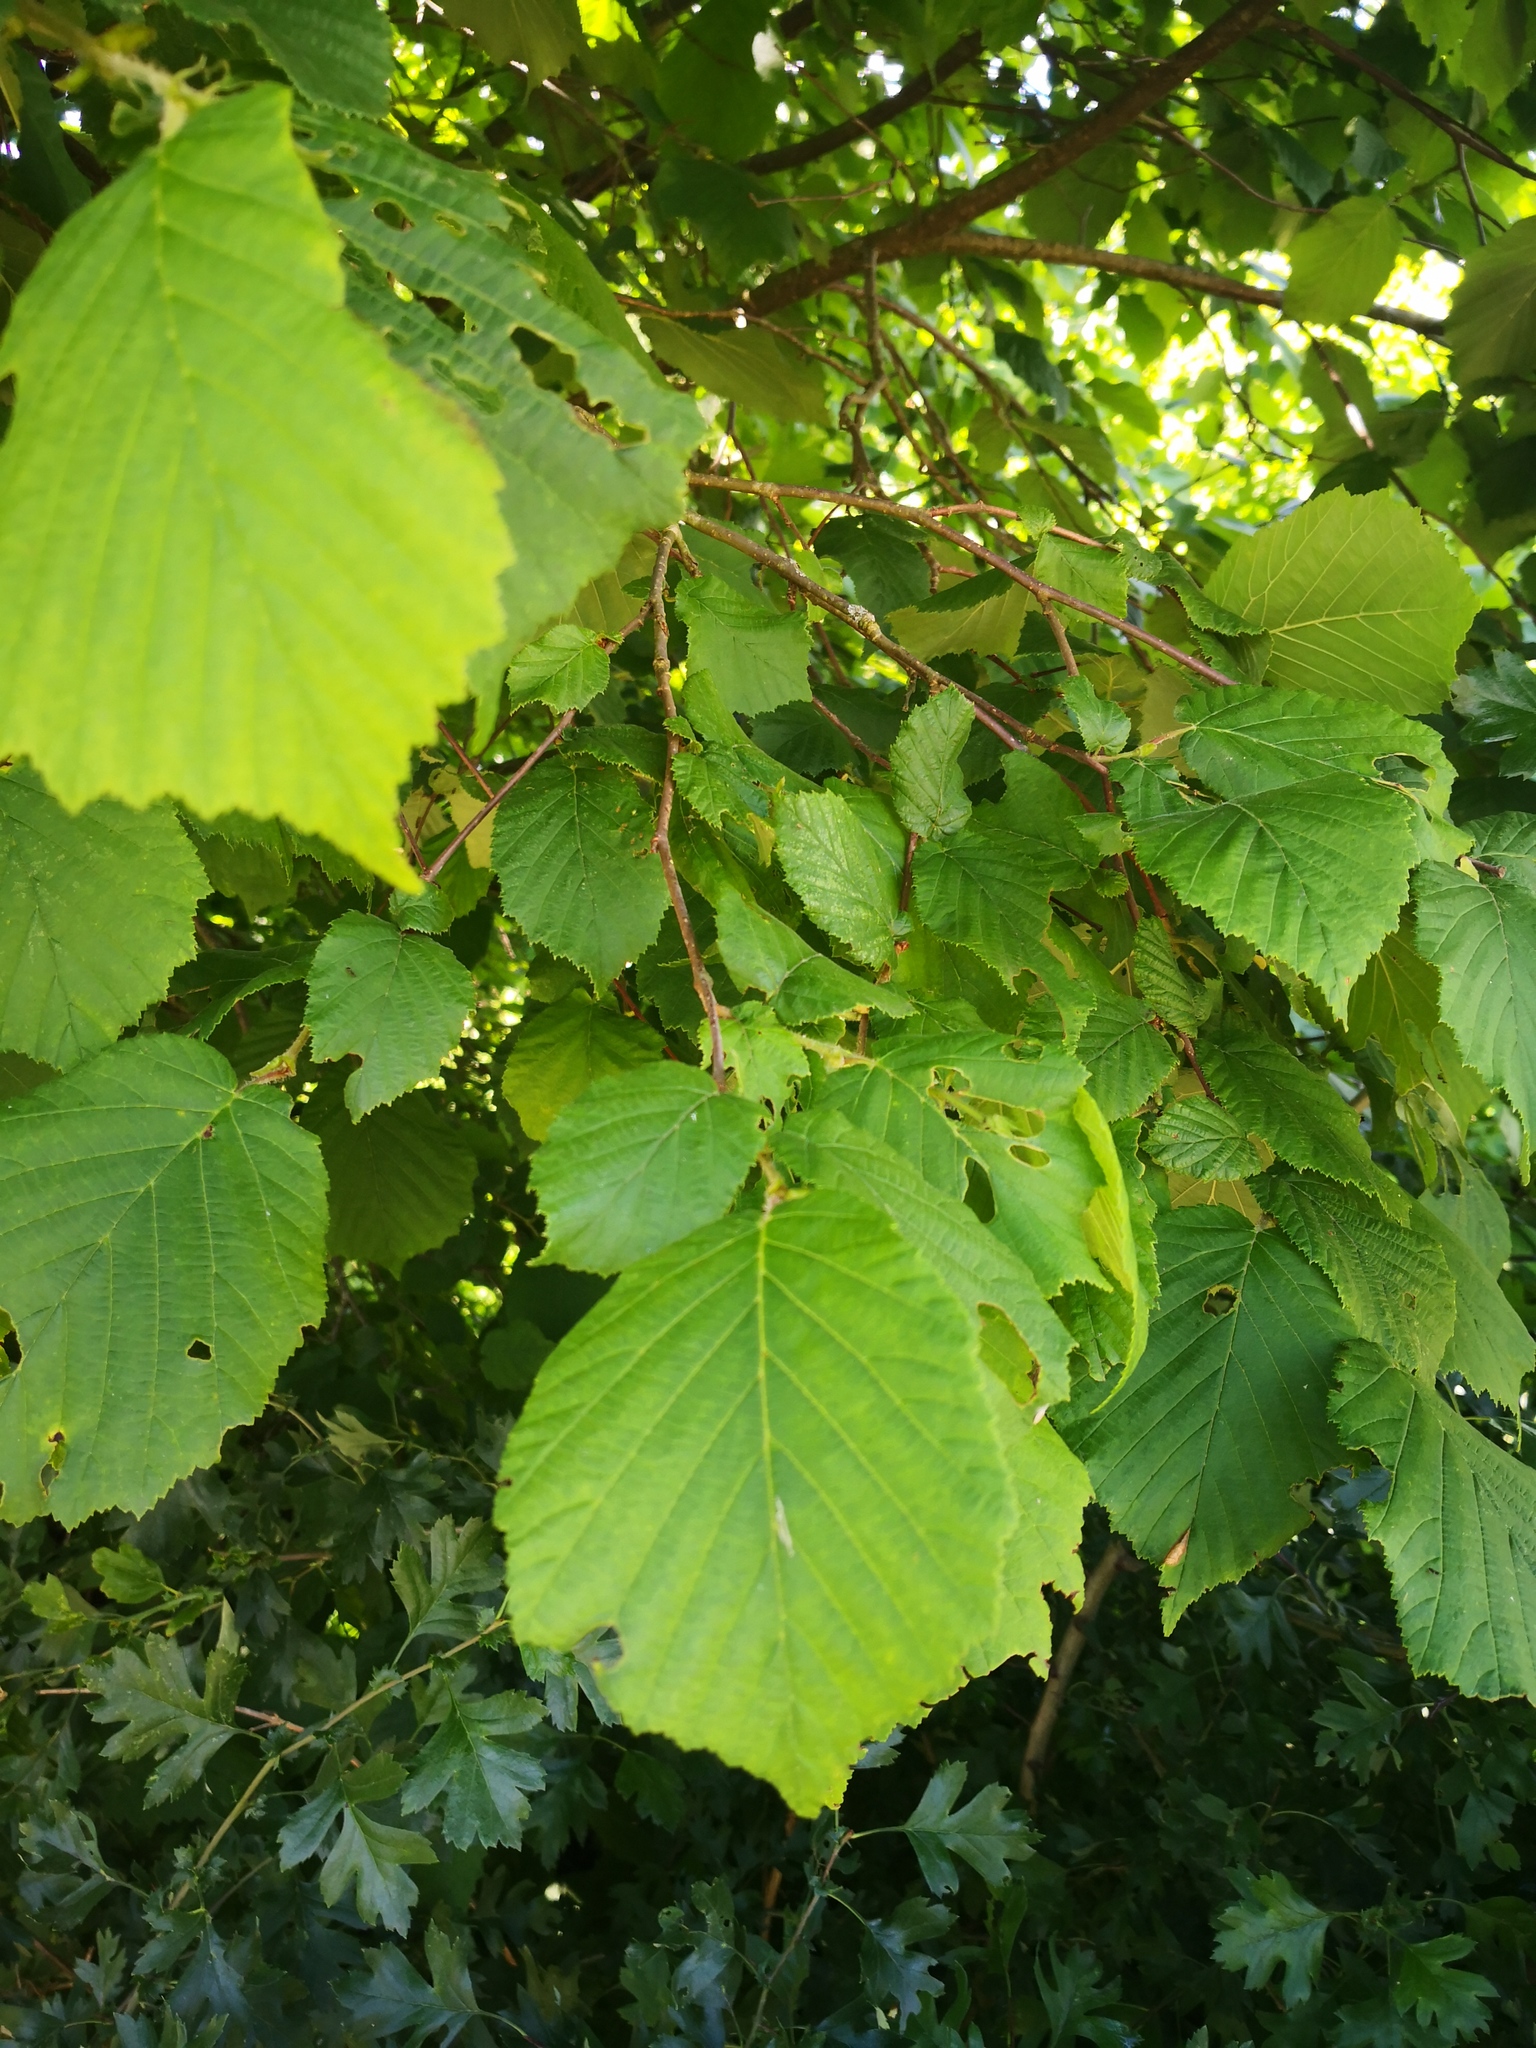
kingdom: Plantae
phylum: Tracheophyta
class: Magnoliopsida
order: Fagales
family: Betulaceae
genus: Corylus
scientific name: Corylus avellana
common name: European hazel
